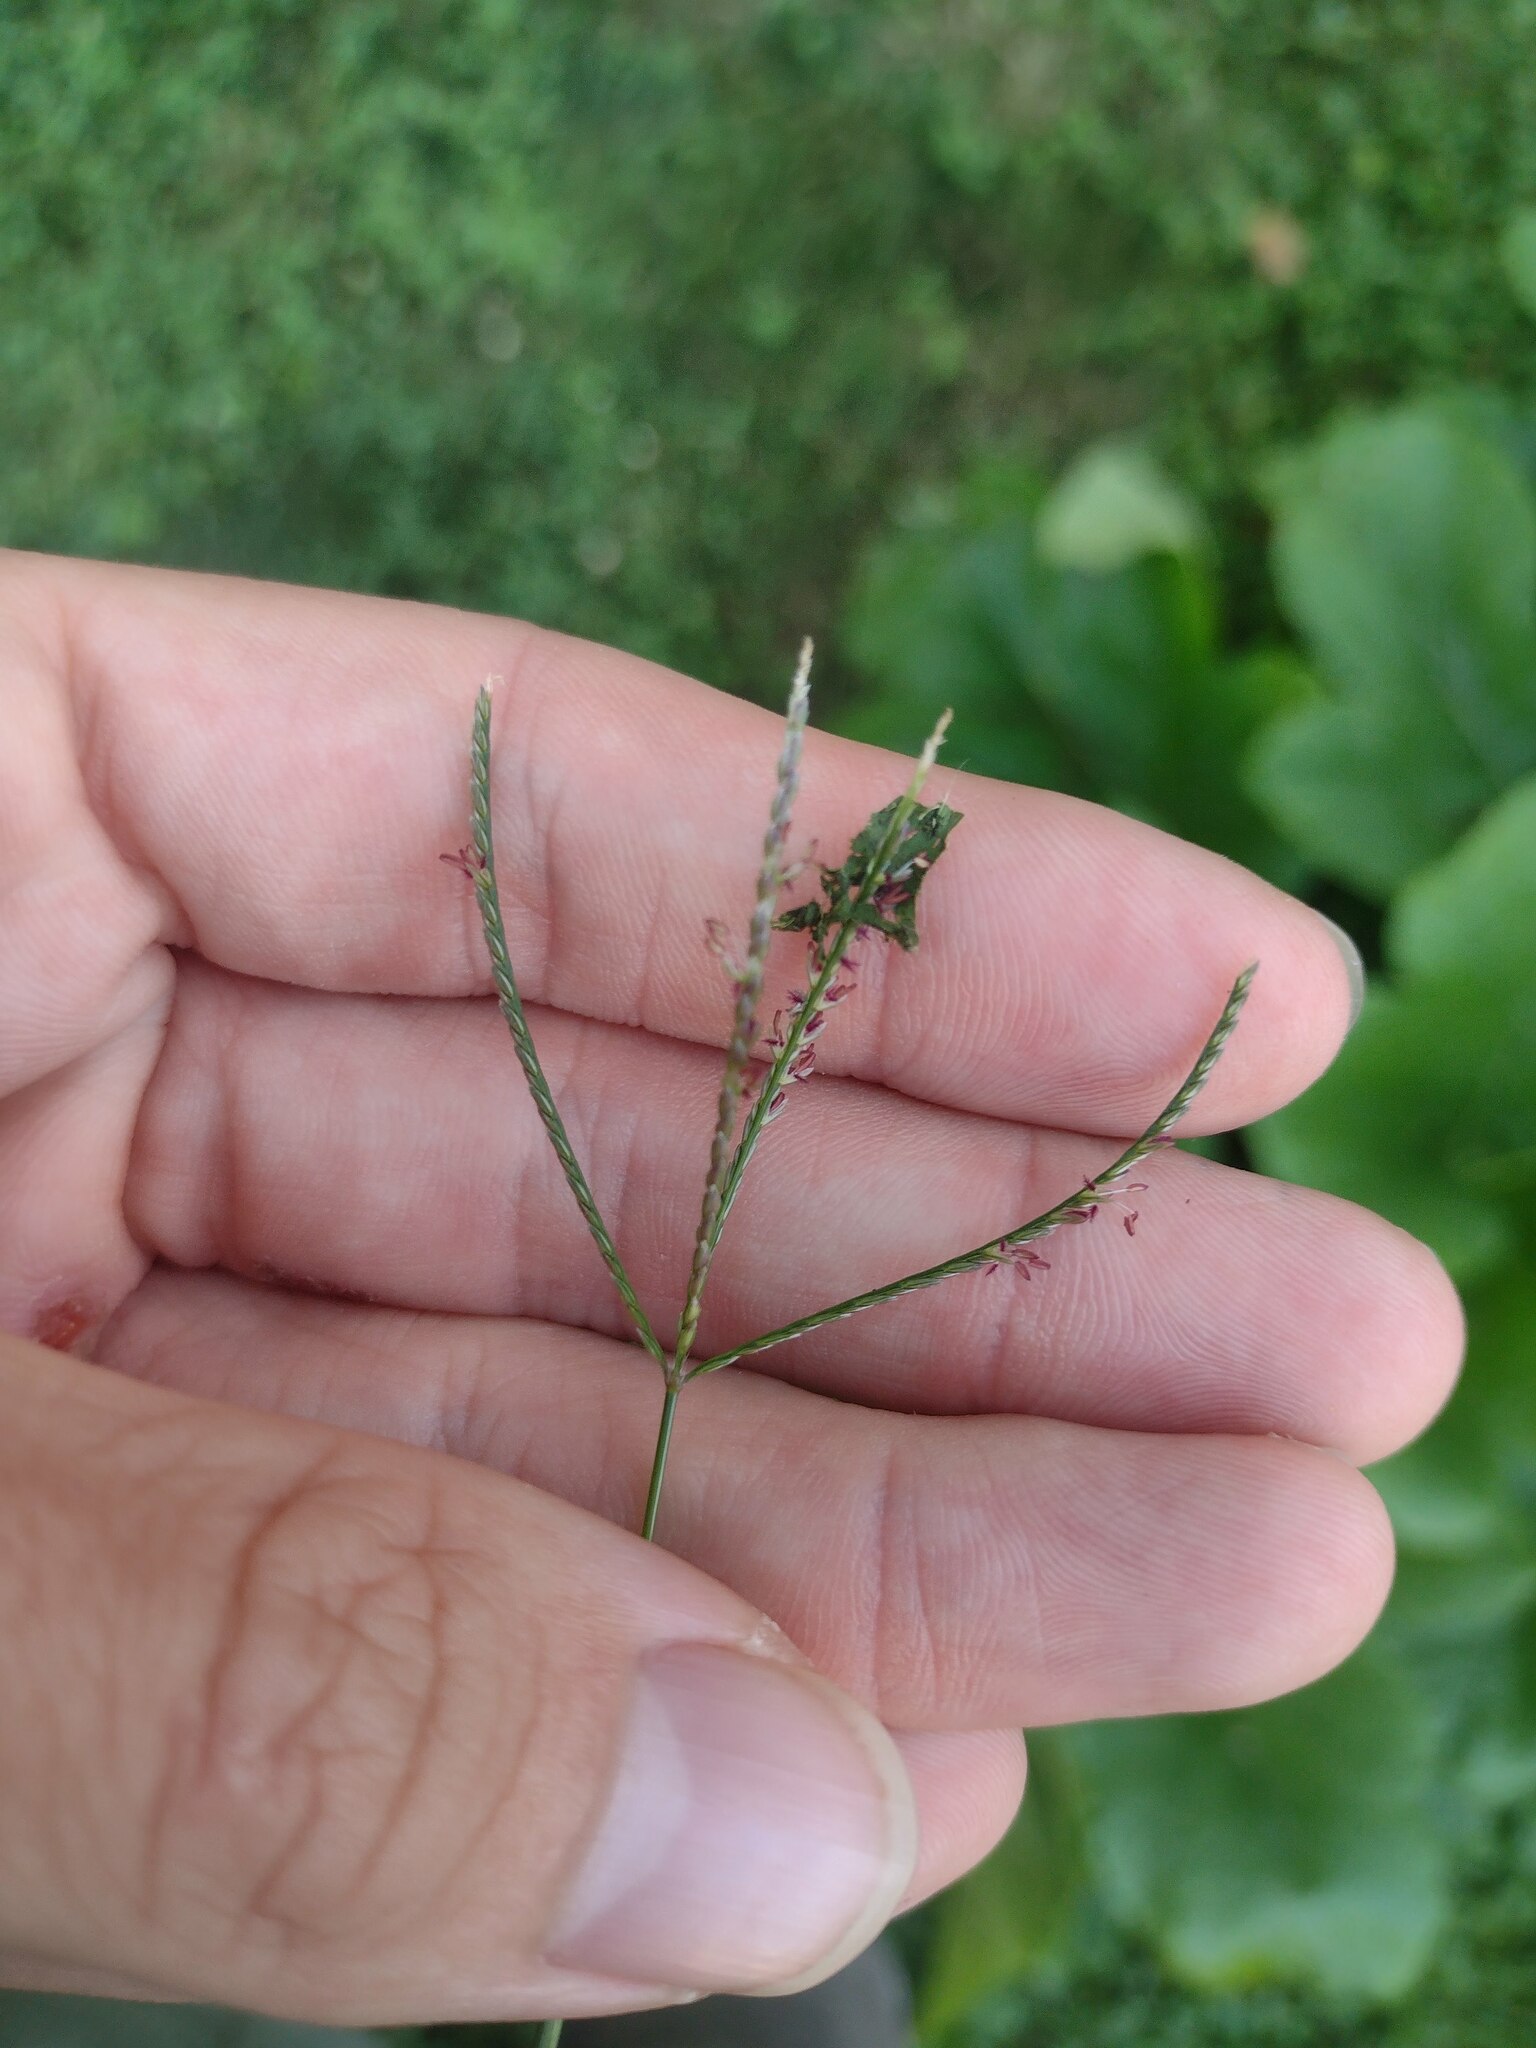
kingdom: Plantae
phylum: Tracheophyta
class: Liliopsida
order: Poales
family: Poaceae
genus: Cynodon
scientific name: Cynodon dactylon
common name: Bermuda grass
